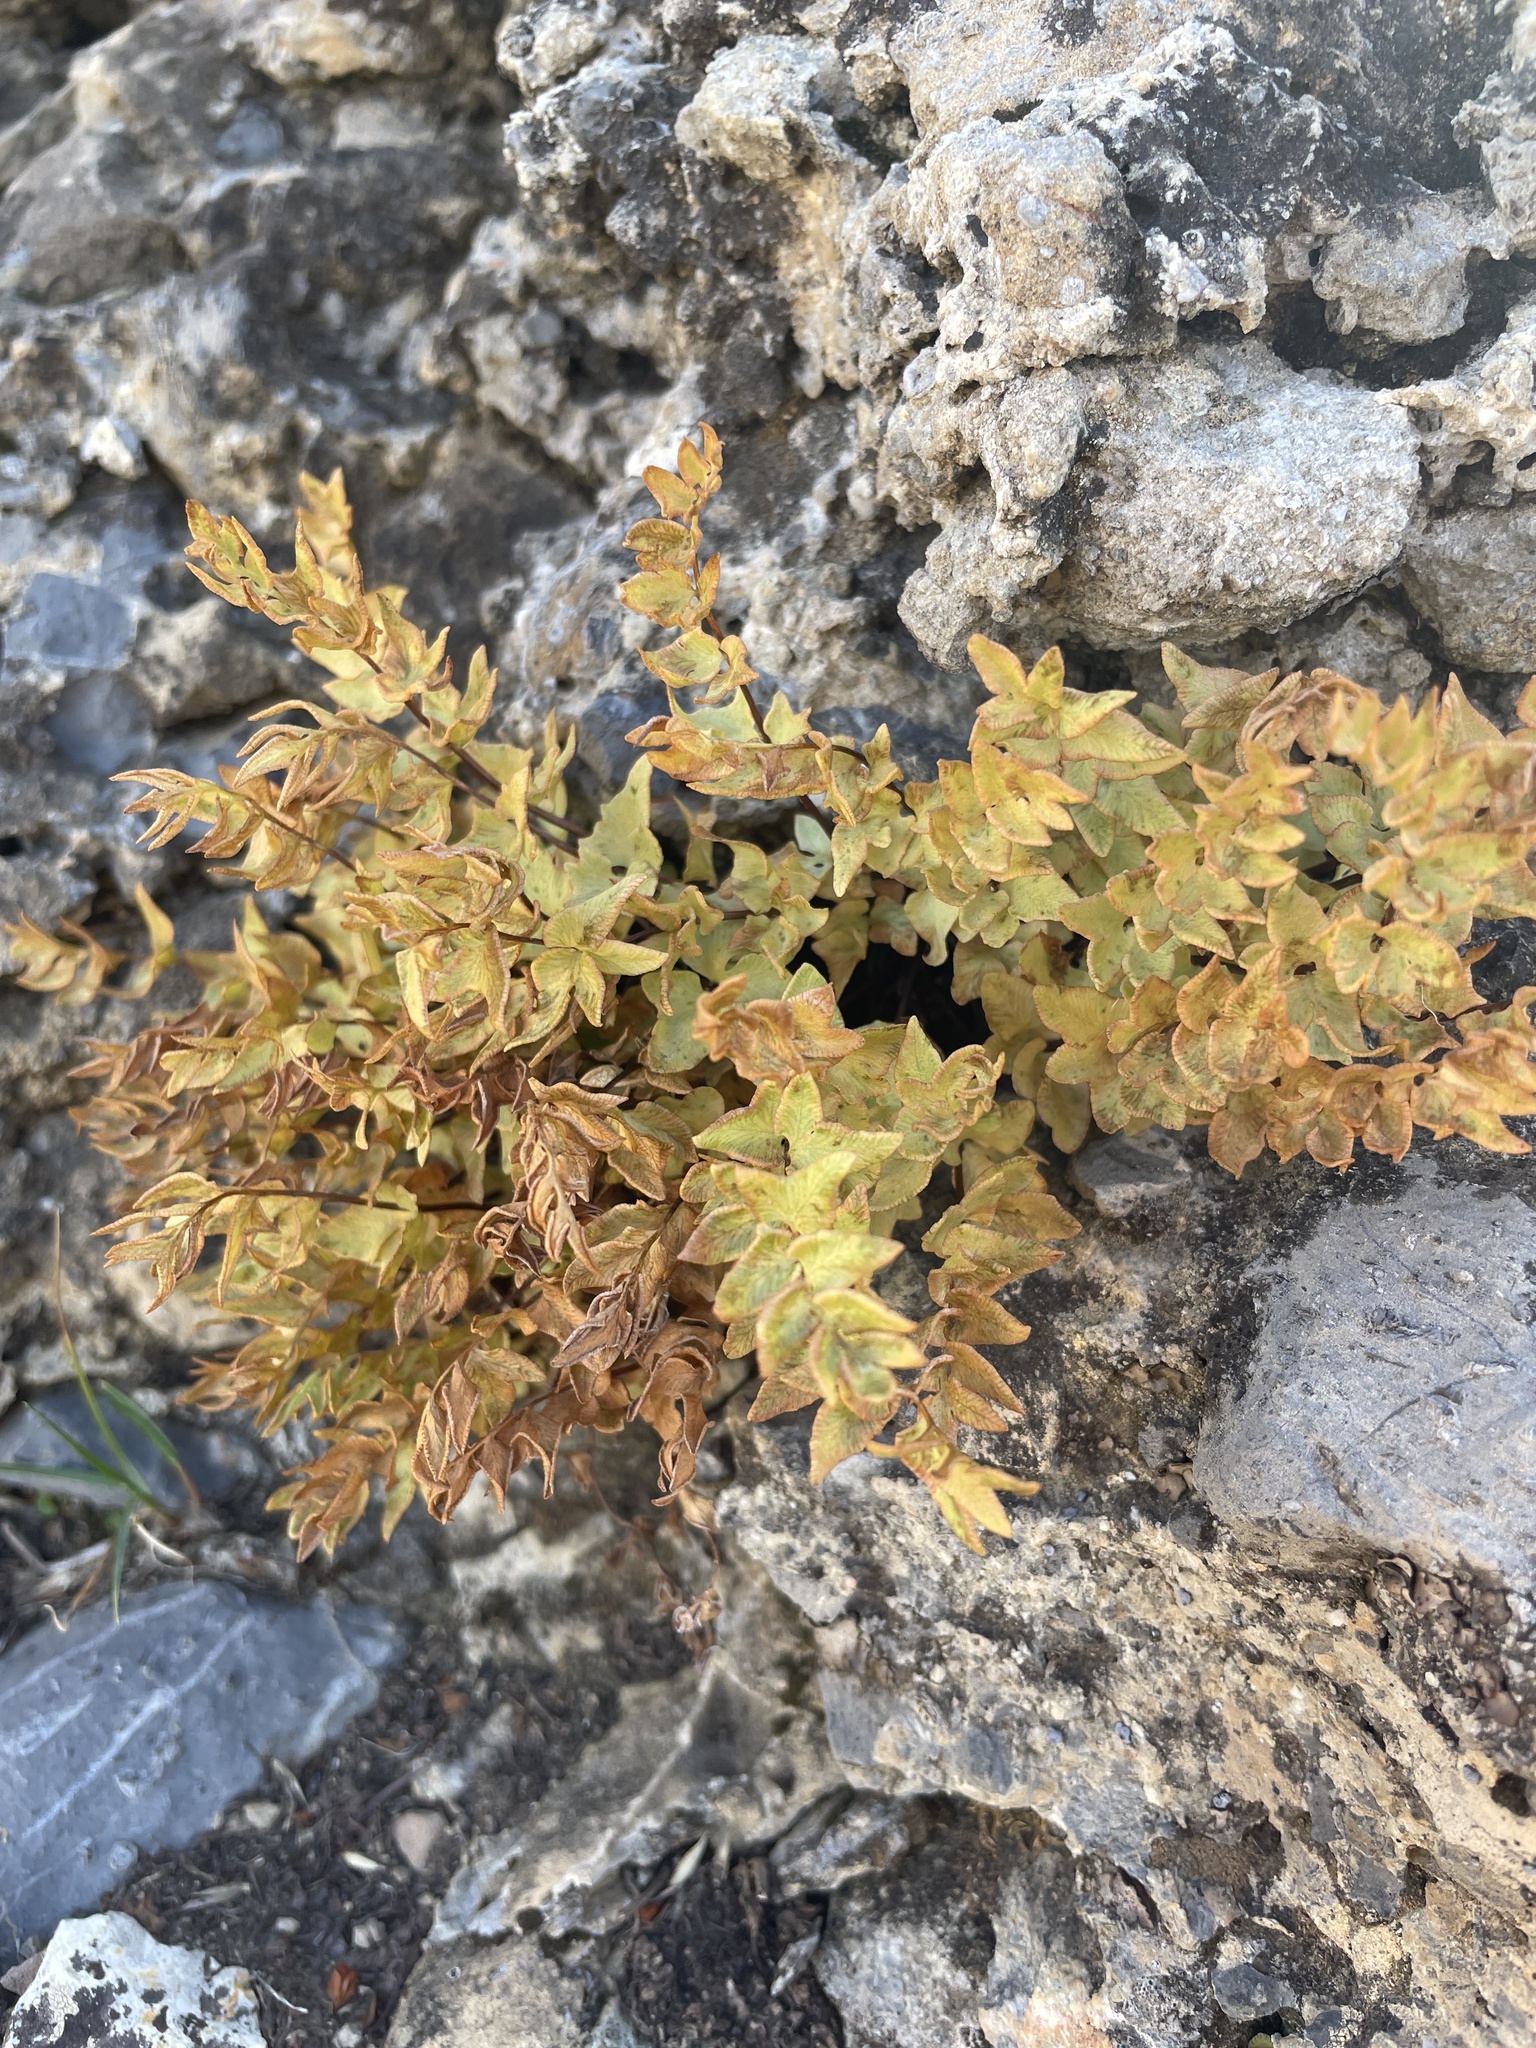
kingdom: Plantae
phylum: Tracheophyta
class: Polypodiopsida
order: Polypodiales
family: Pteridaceae
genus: Pellaea
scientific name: Pellaea breweri
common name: Brewer's cliffbrake
